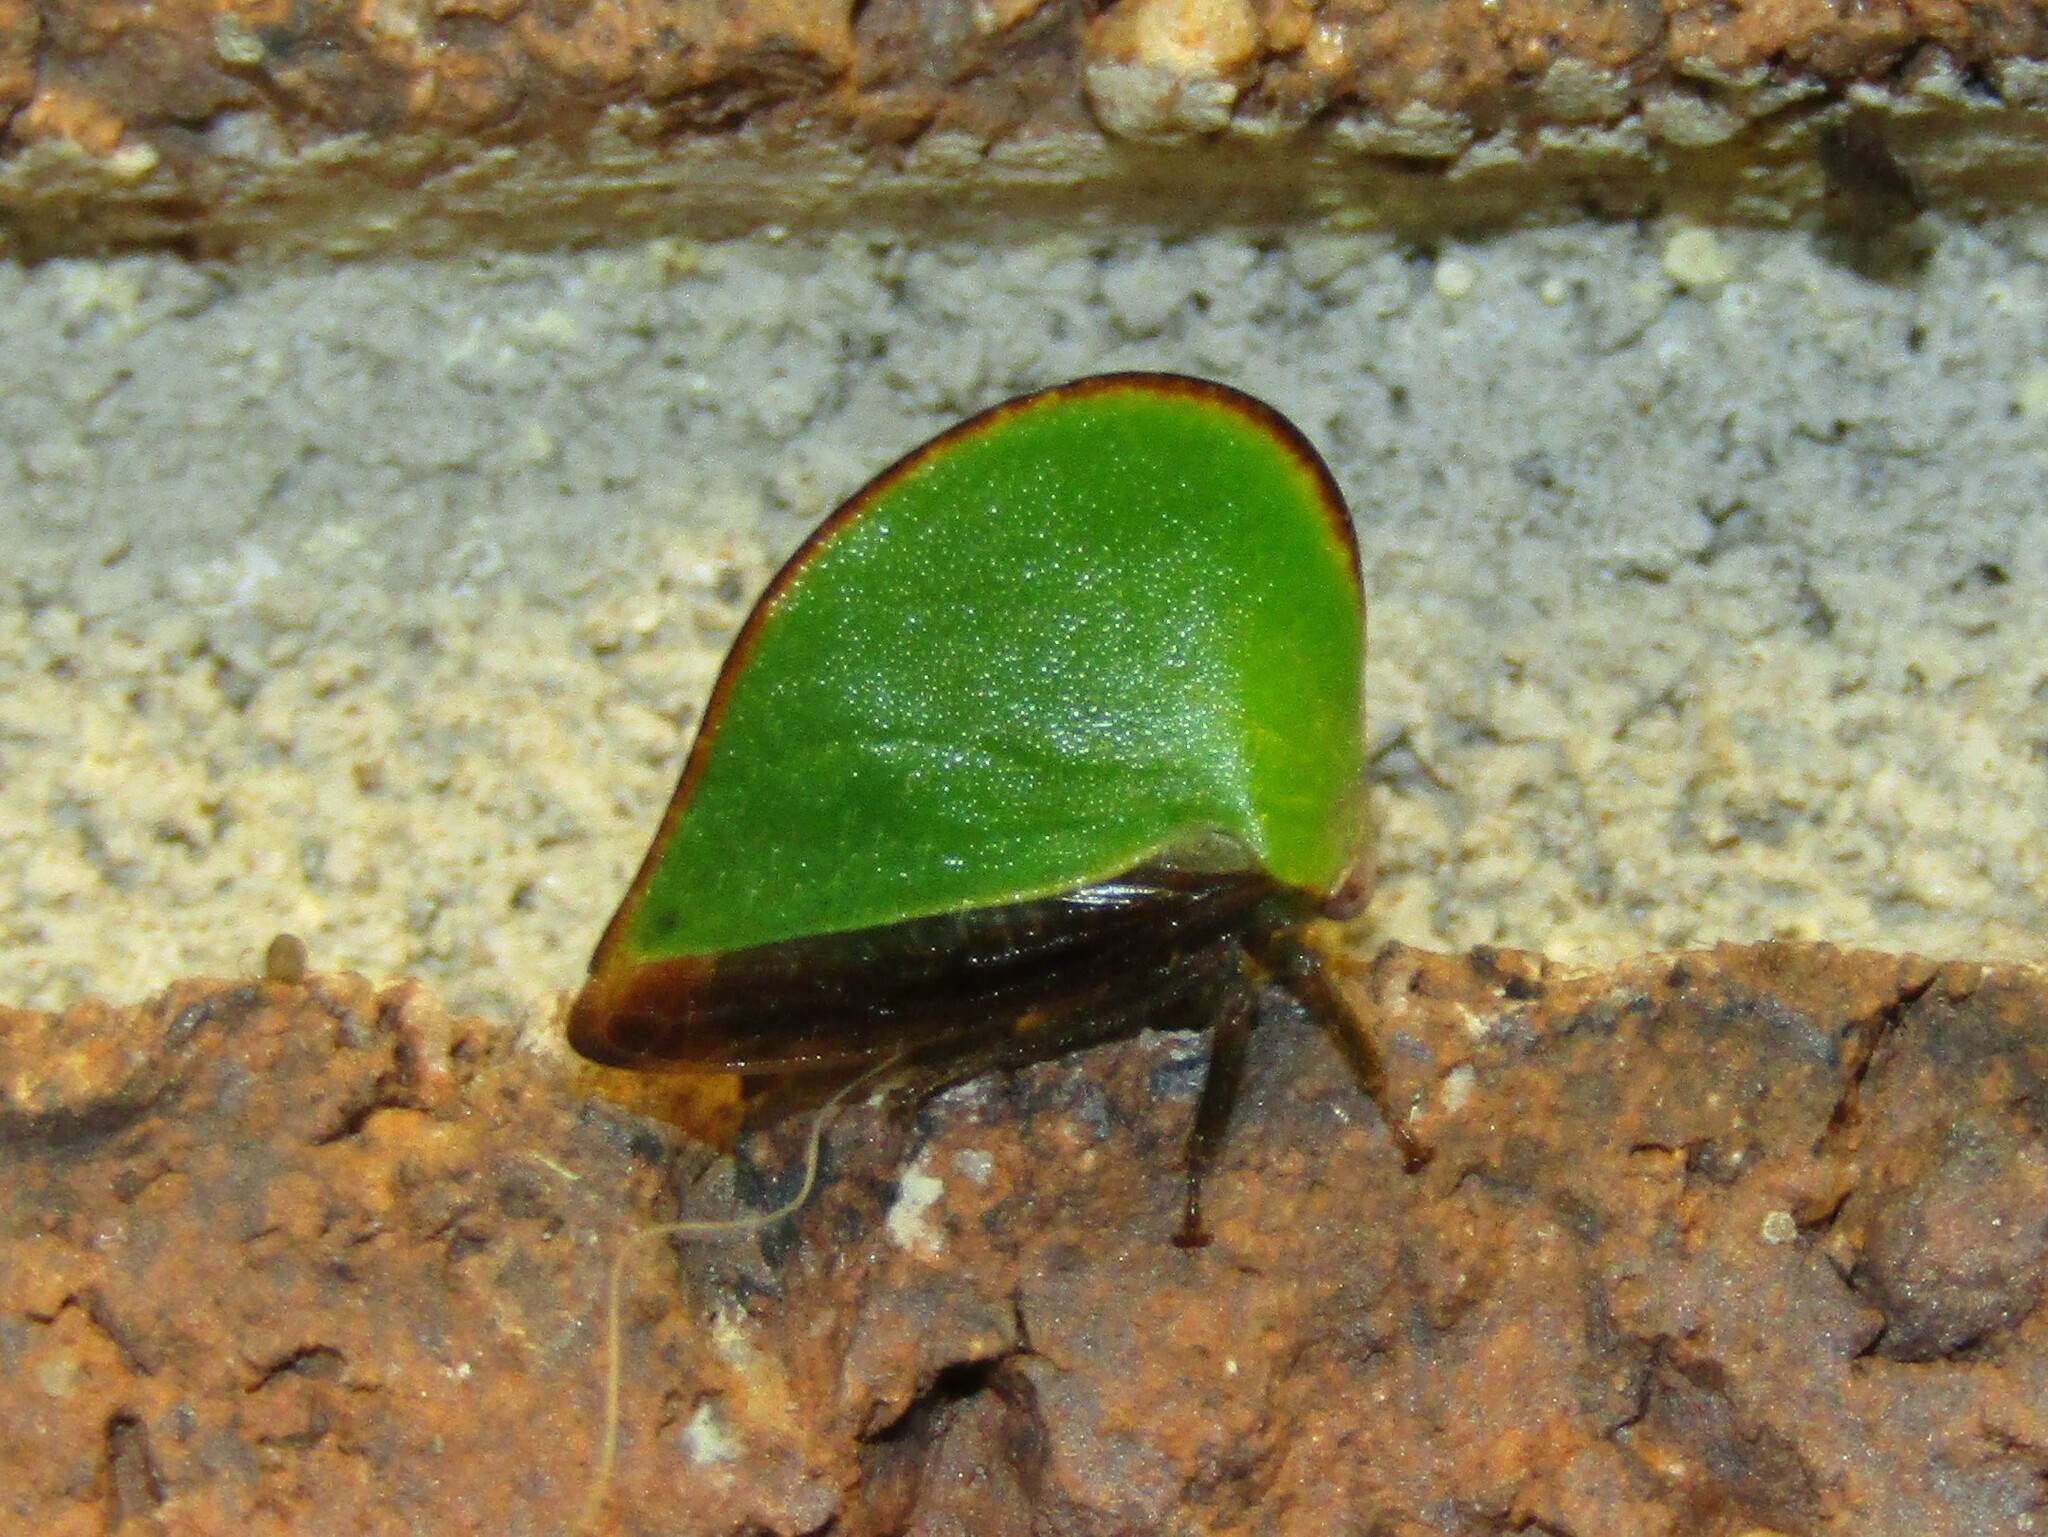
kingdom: Animalia
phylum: Arthropoda
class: Insecta
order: Hemiptera
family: Membracidae
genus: Archasia
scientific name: Archasia belfragei
